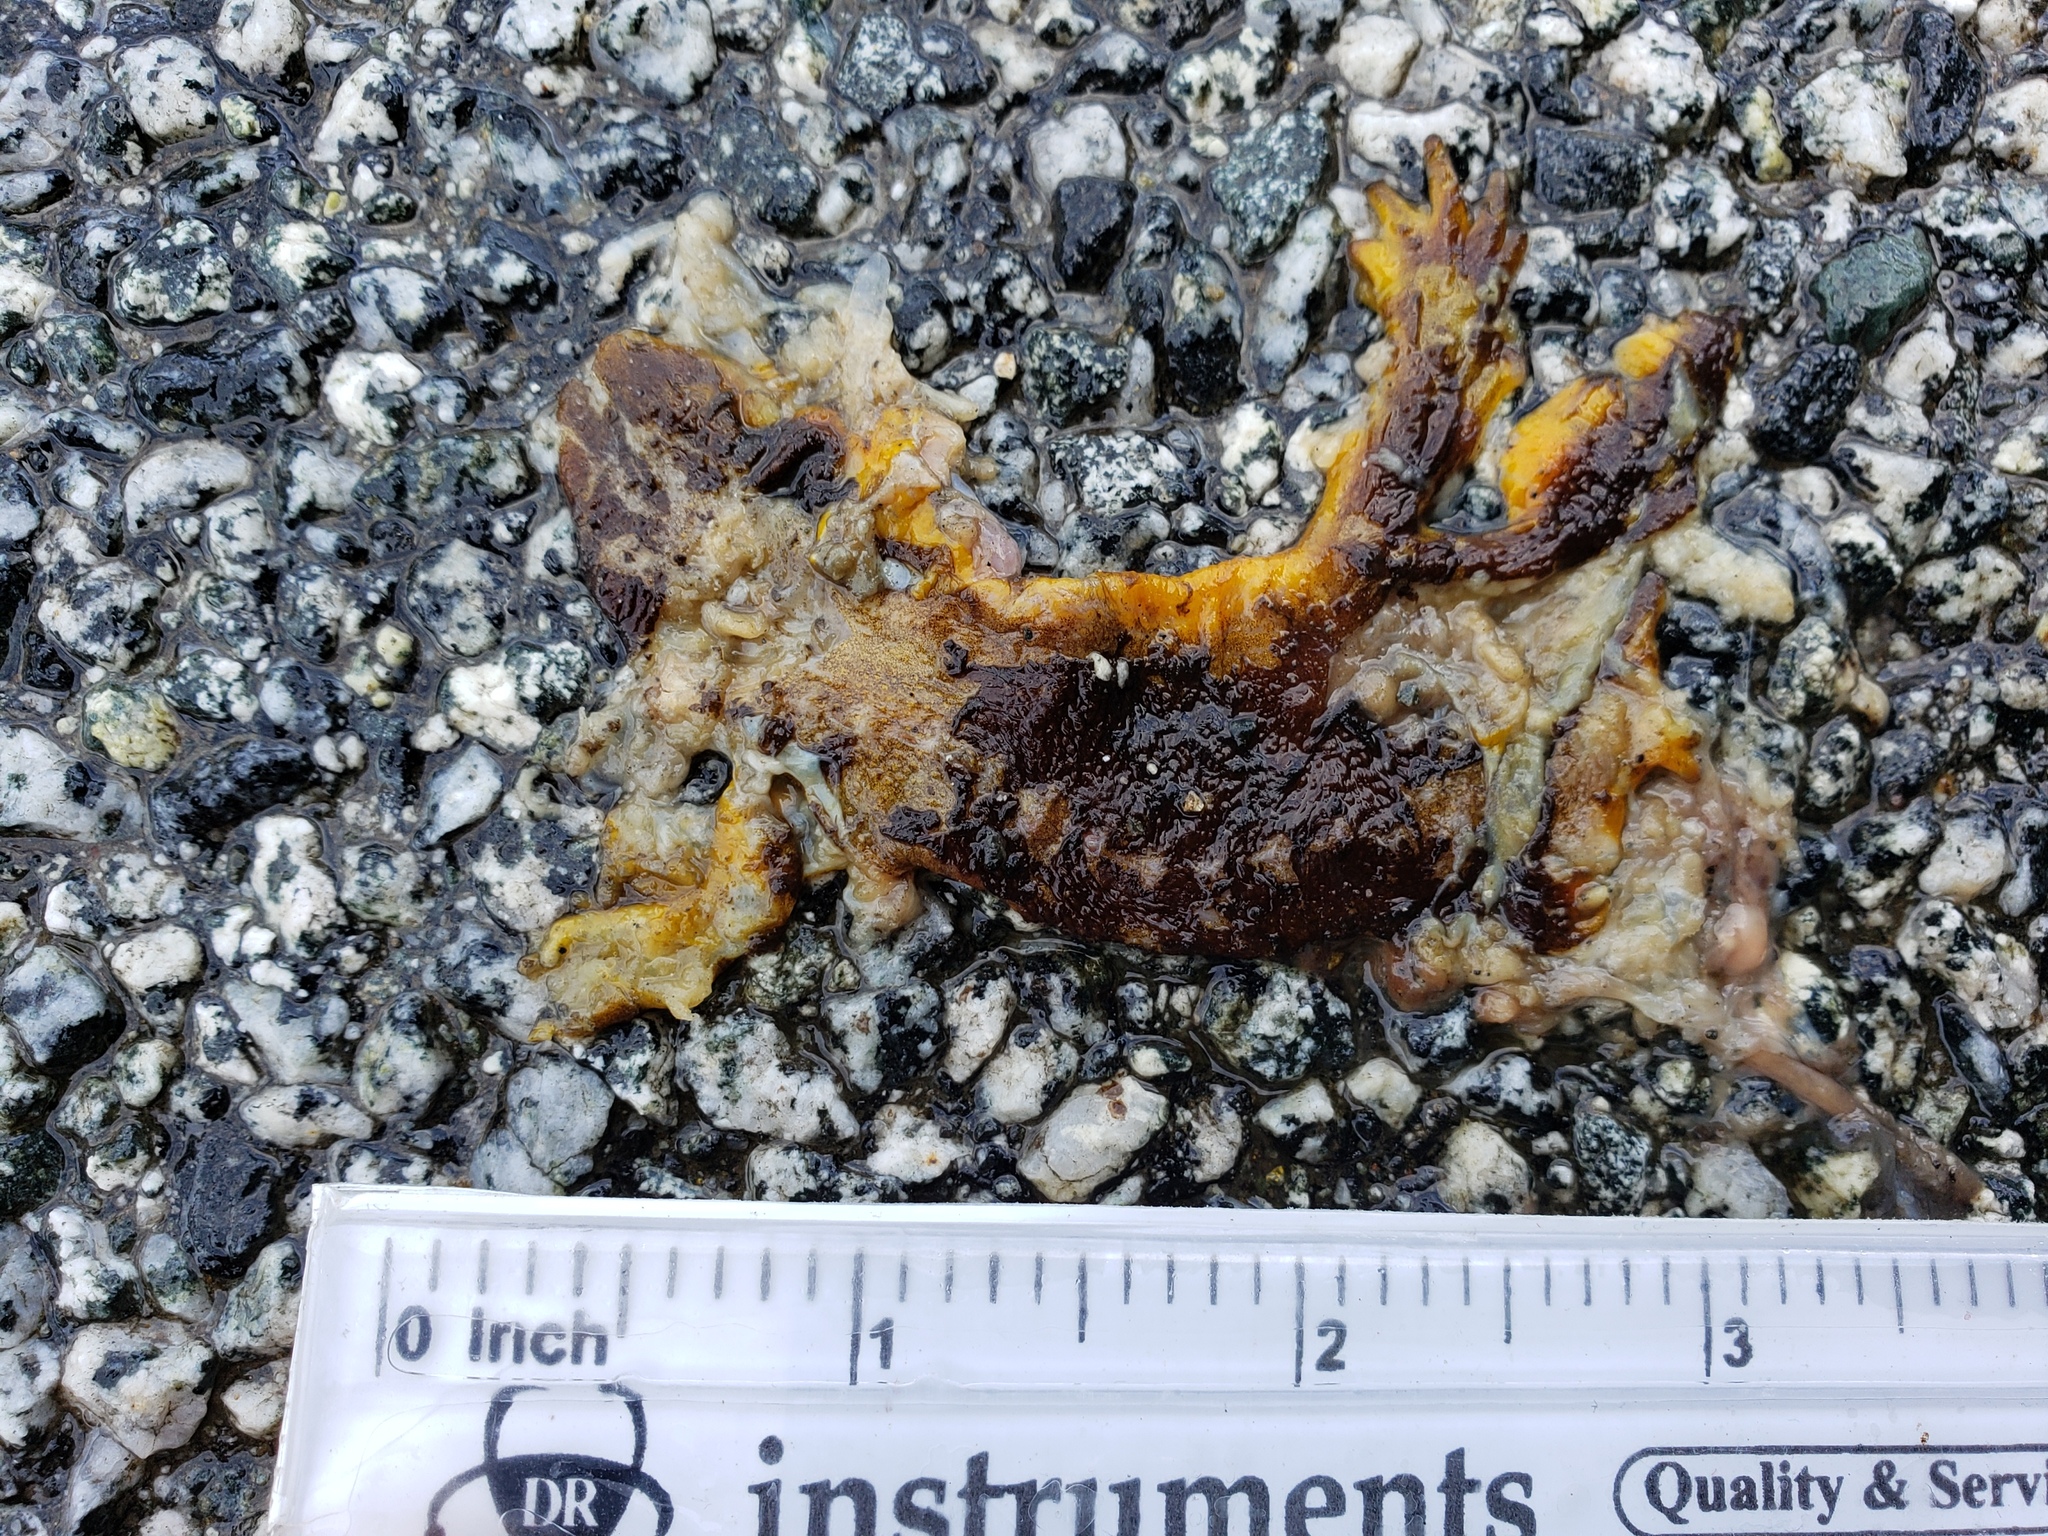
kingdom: Animalia
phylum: Chordata
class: Amphibia
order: Caudata
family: Salamandridae
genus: Taricha
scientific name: Taricha
